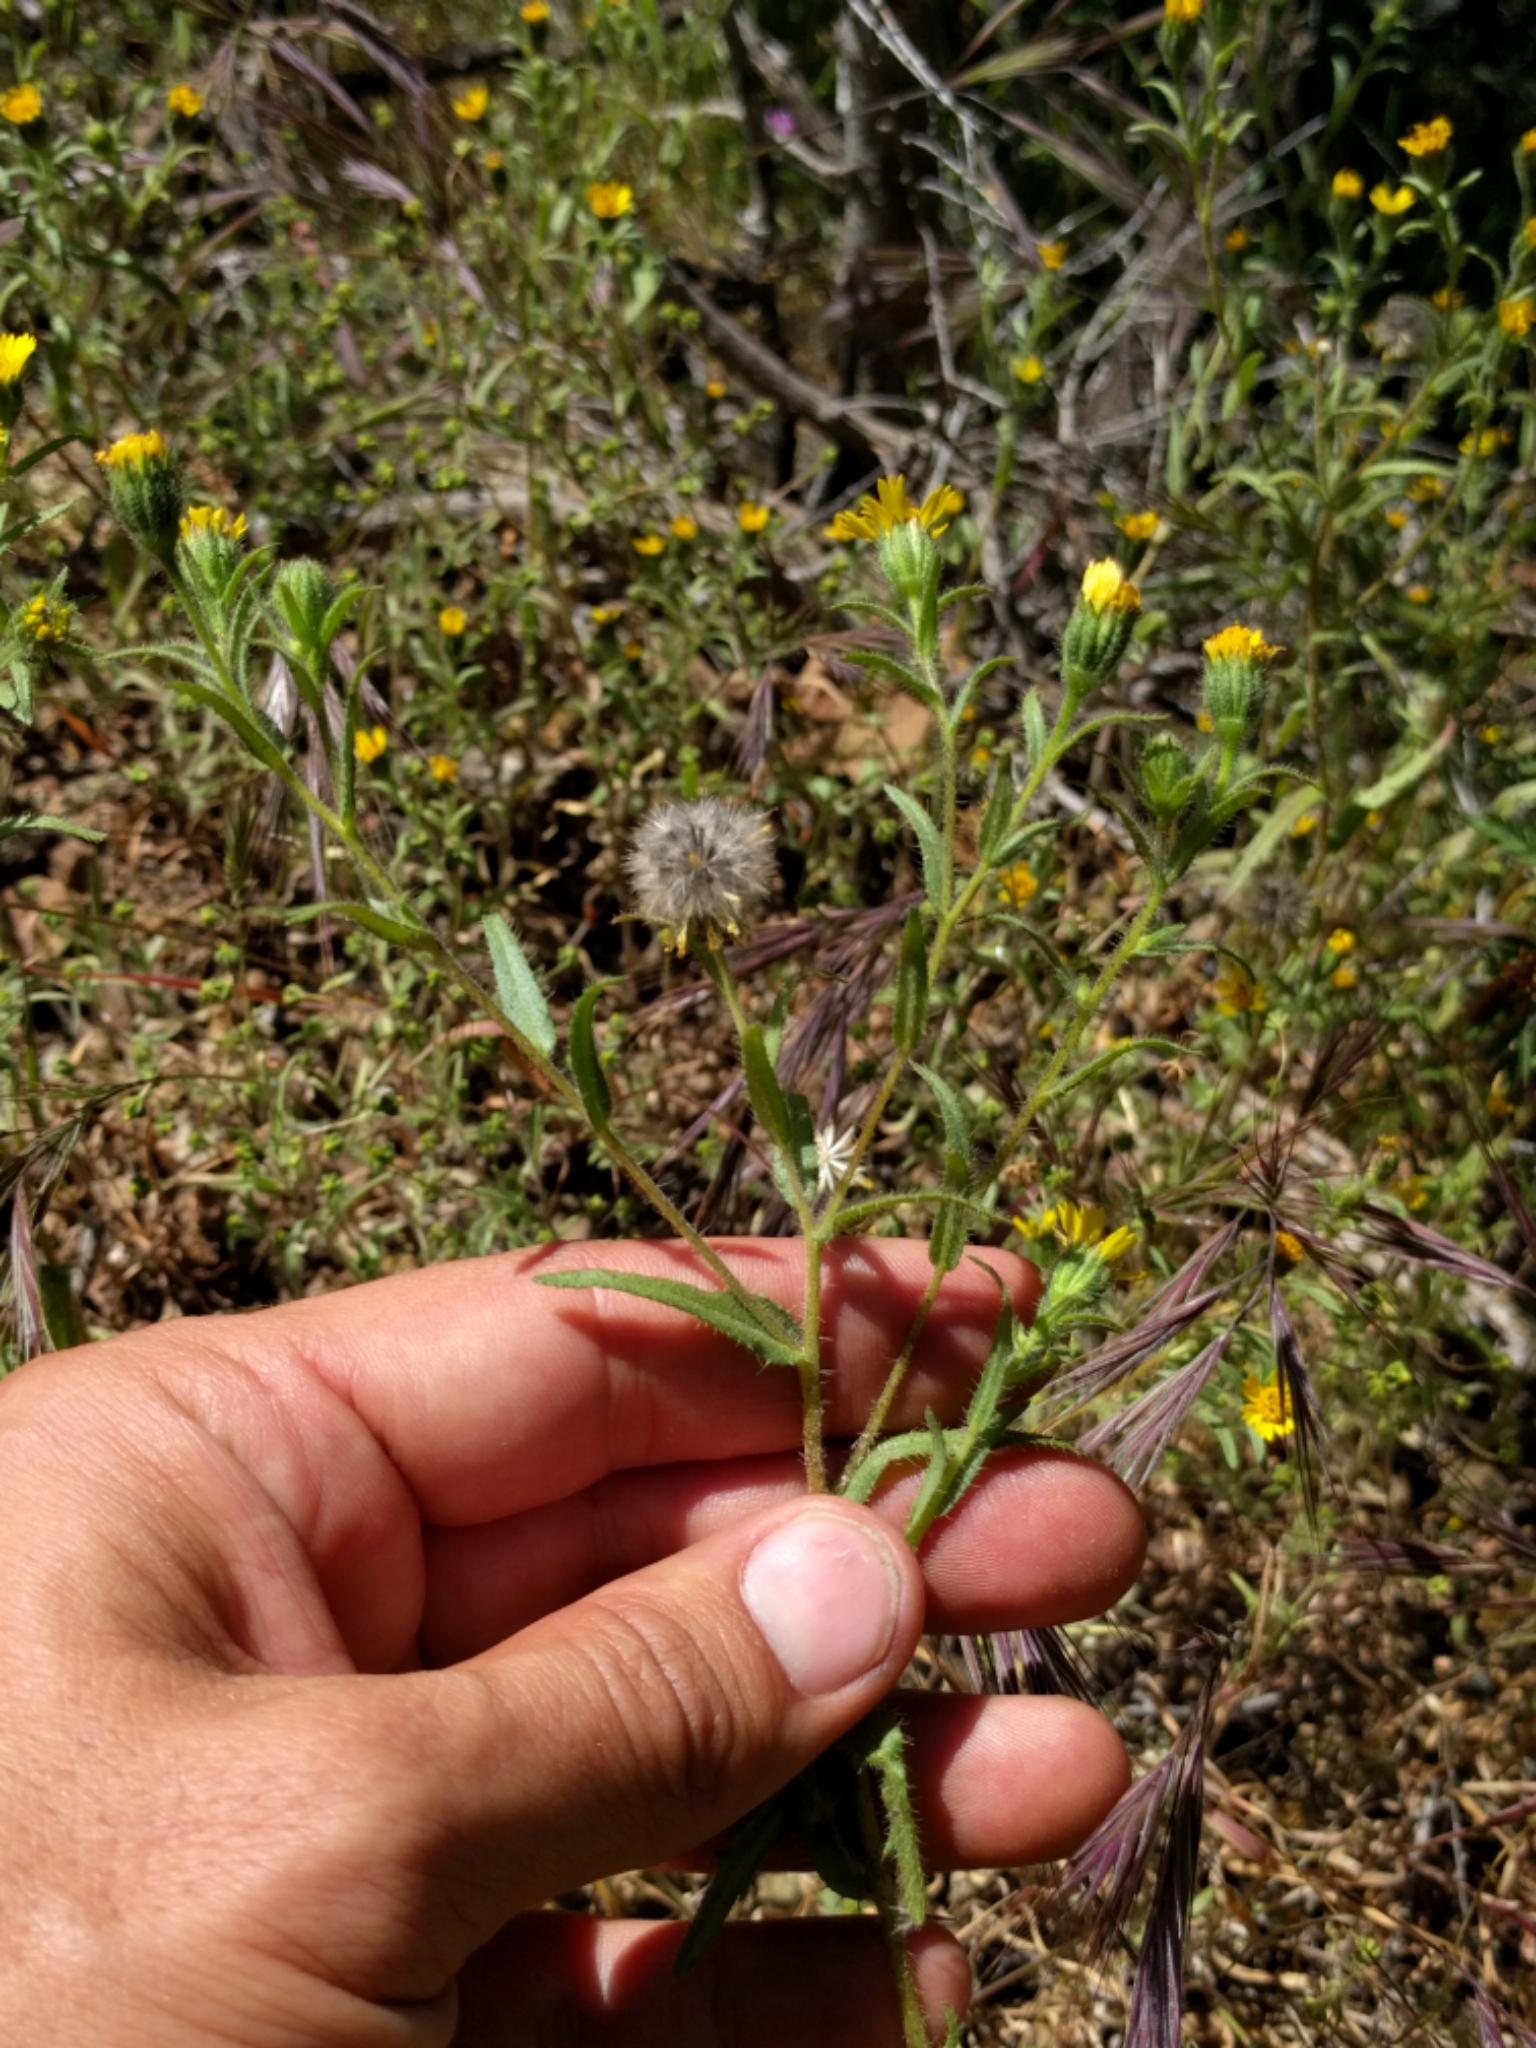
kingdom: Plantae
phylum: Tracheophyta
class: Magnoliopsida
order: Asterales
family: Asteraceae
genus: Layia
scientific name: Layia hieracioides
